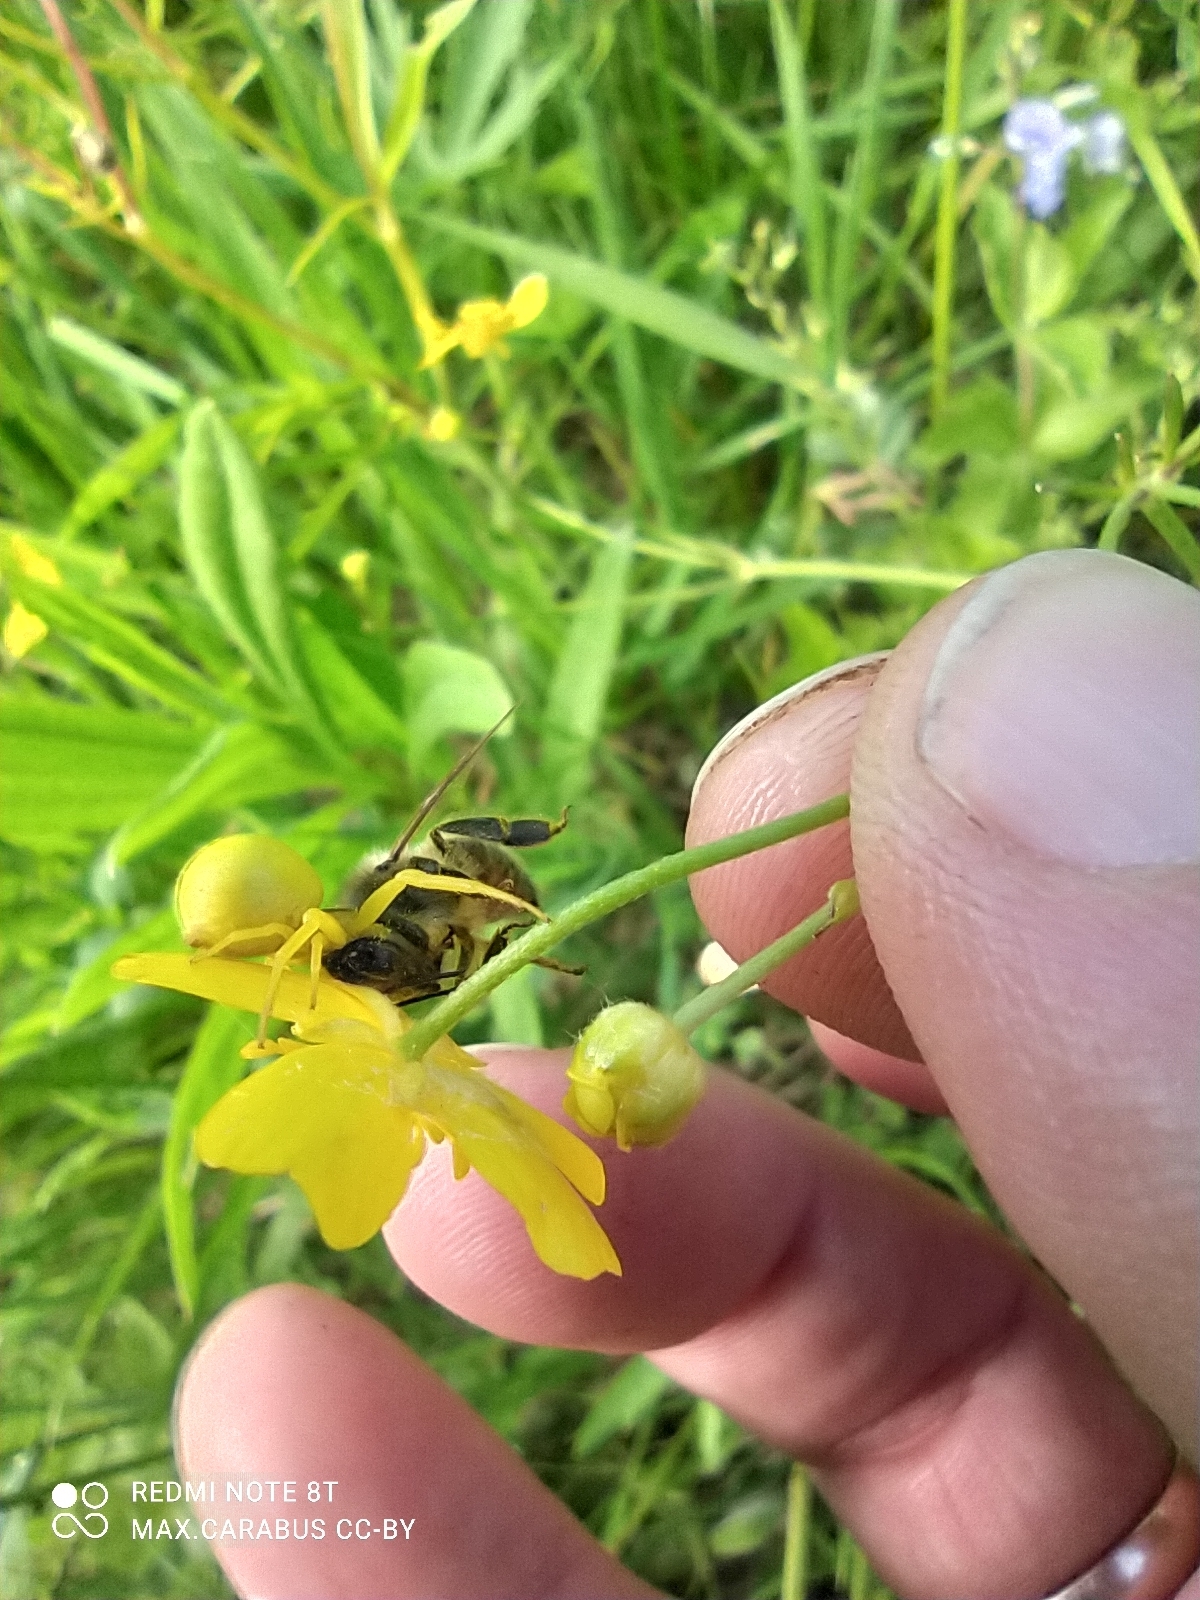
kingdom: Animalia
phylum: Arthropoda
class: Arachnida
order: Araneae
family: Thomisidae
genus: Misumena
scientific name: Misumena vatia
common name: Goldenrod crab spider
